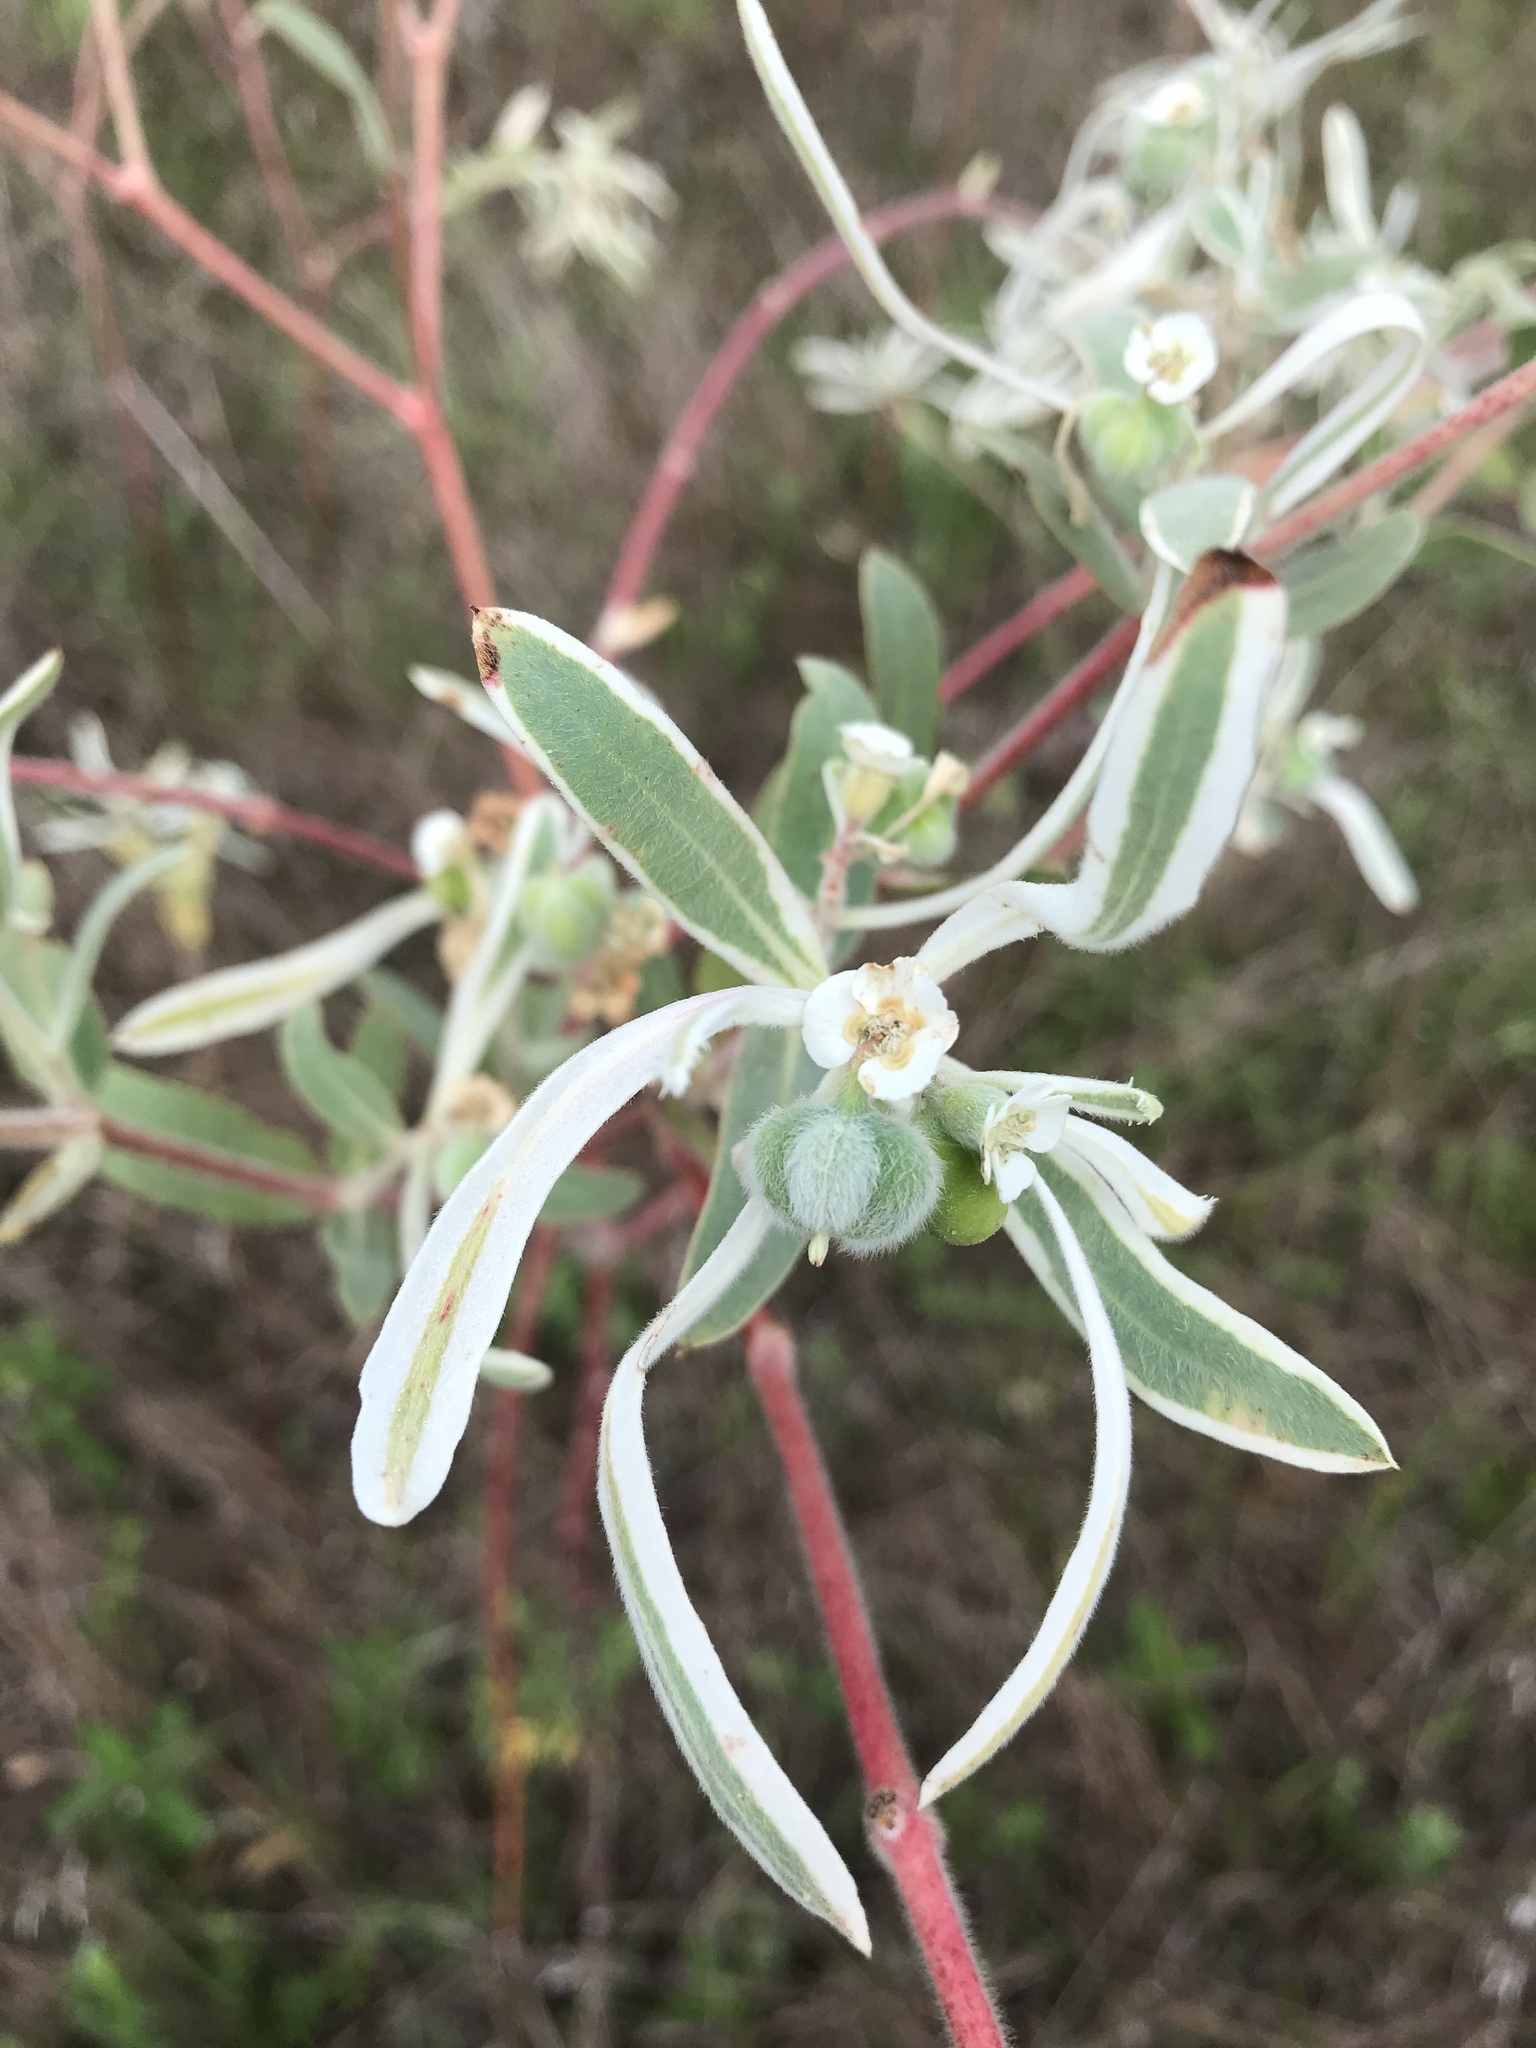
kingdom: Plantae
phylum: Tracheophyta
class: Magnoliopsida
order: Malpighiales
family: Euphorbiaceae
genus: Euphorbia
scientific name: Euphorbia bicolor
